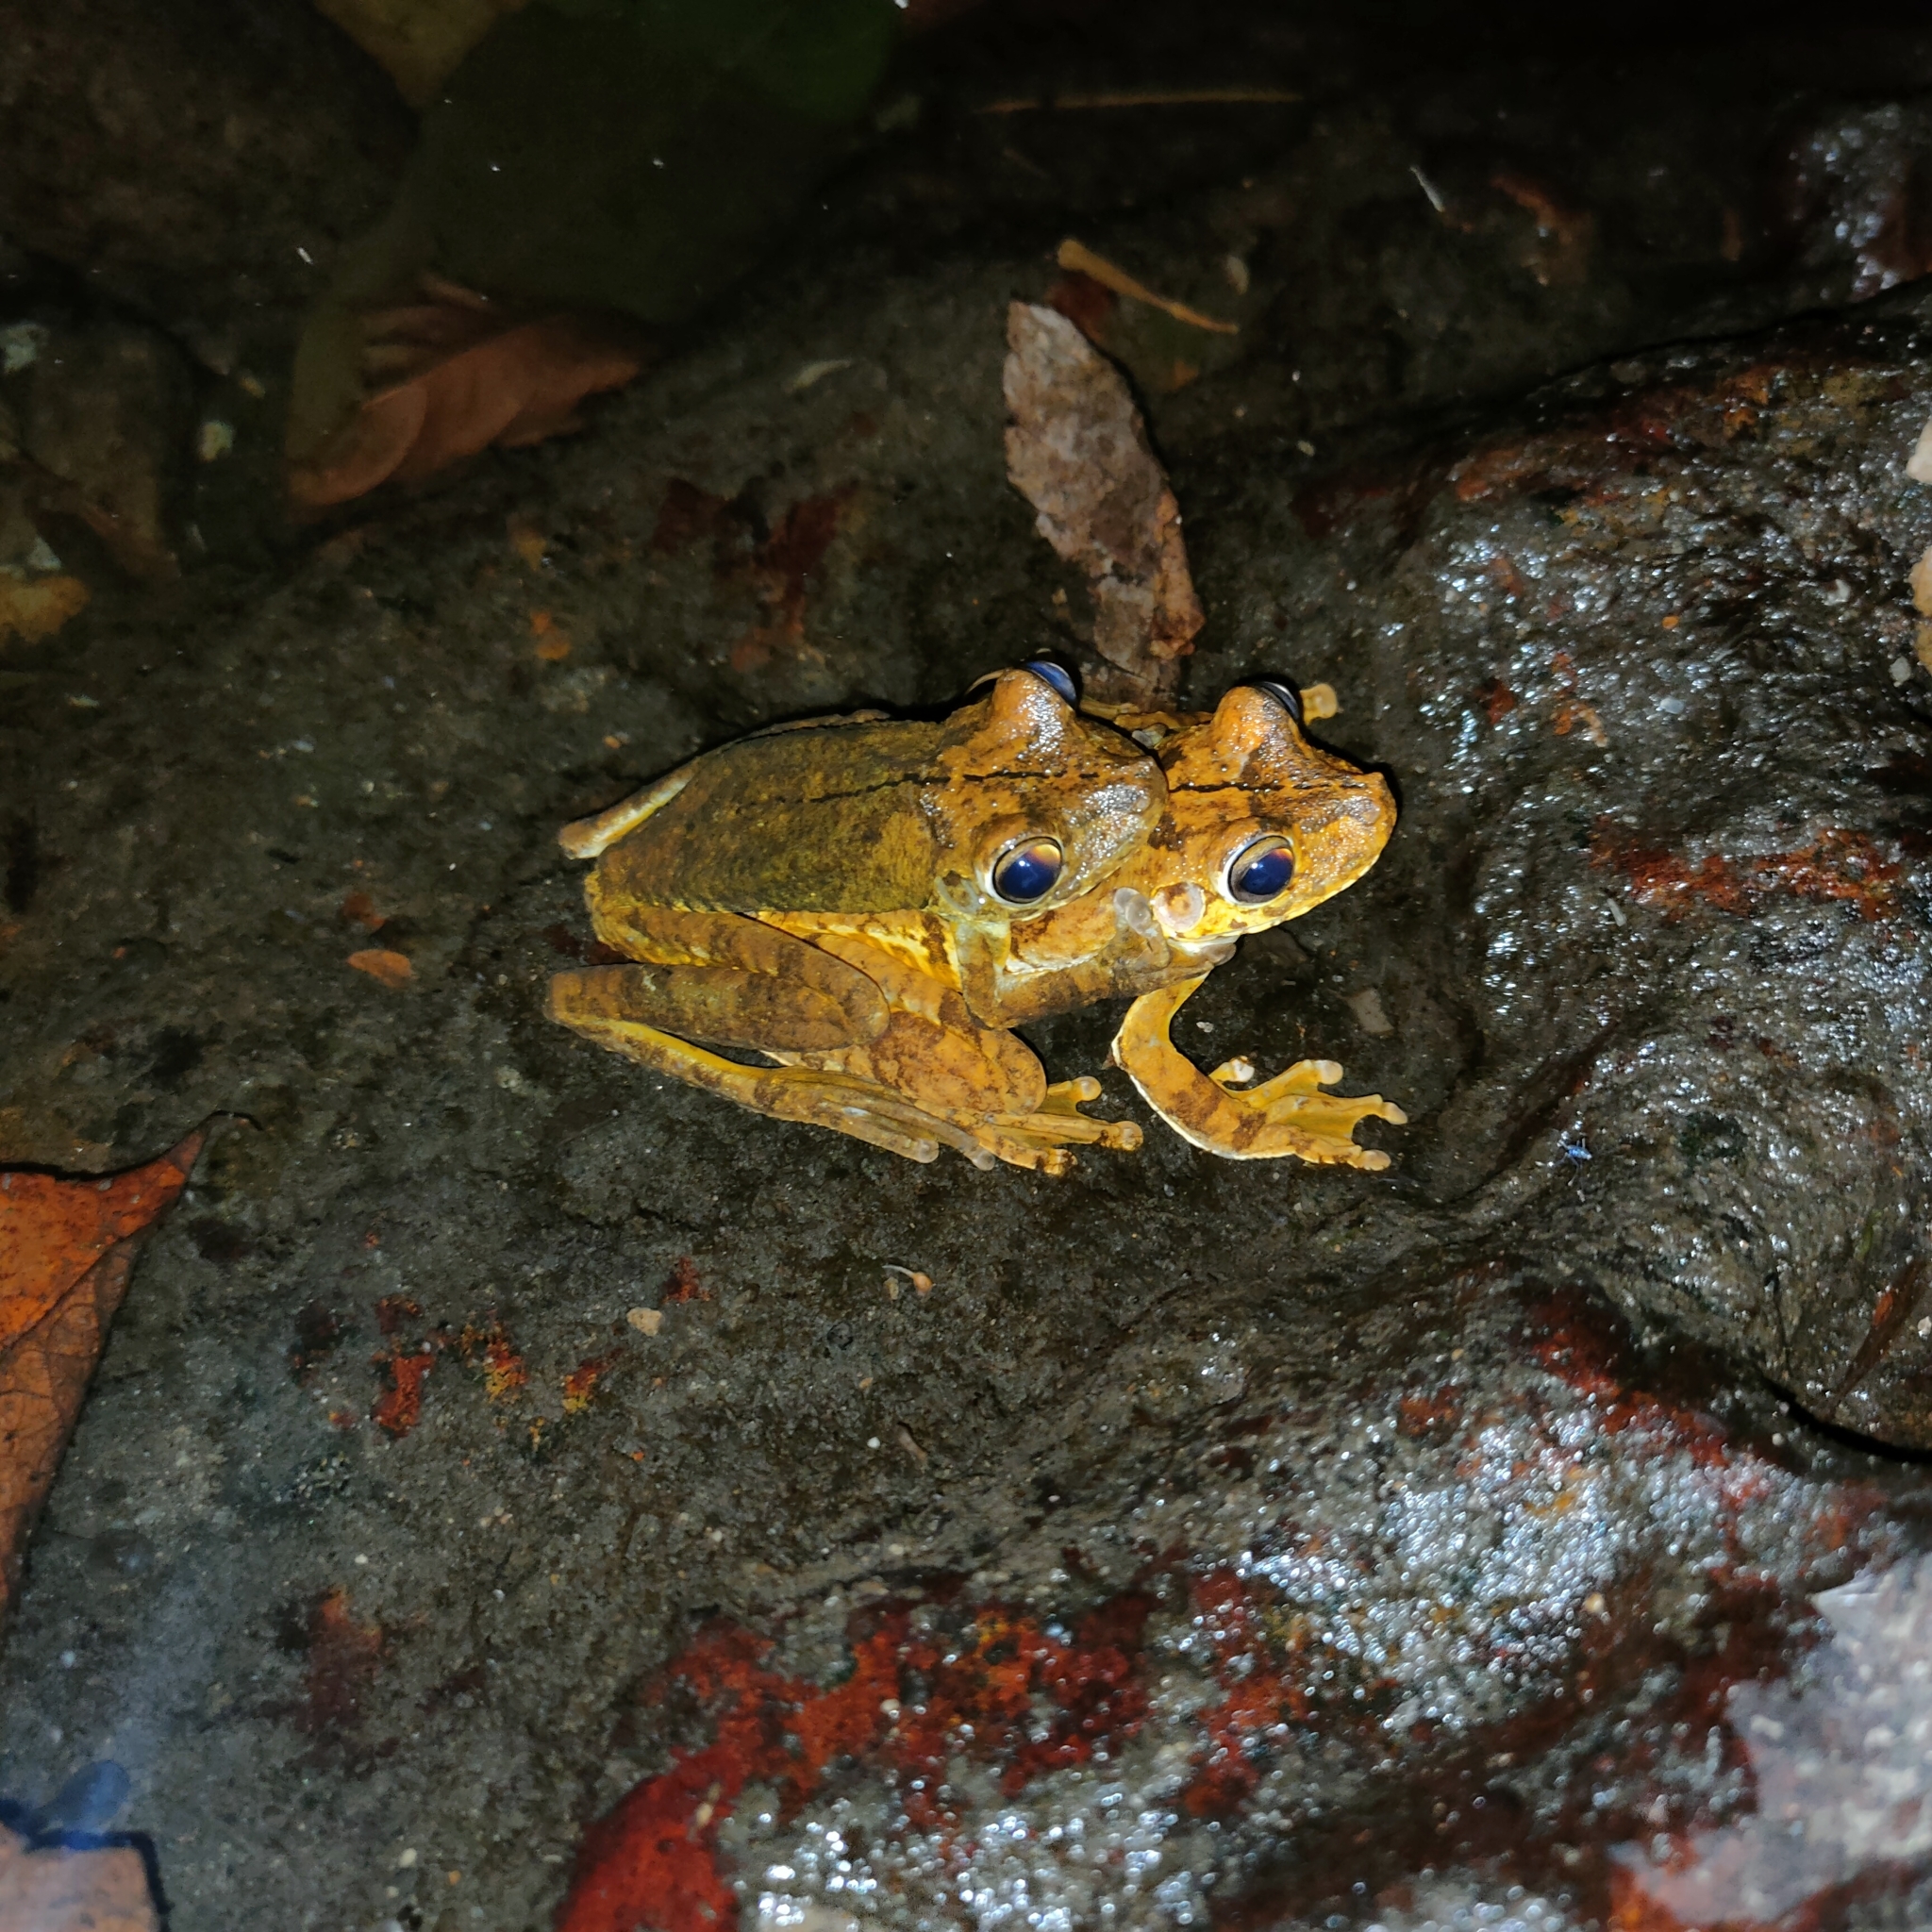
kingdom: Animalia
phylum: Chordata
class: Amphibia
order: Anura
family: Hylidae
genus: Boana
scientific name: Boana rosenbergi
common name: Rosenberg´s gladiator treefrog
